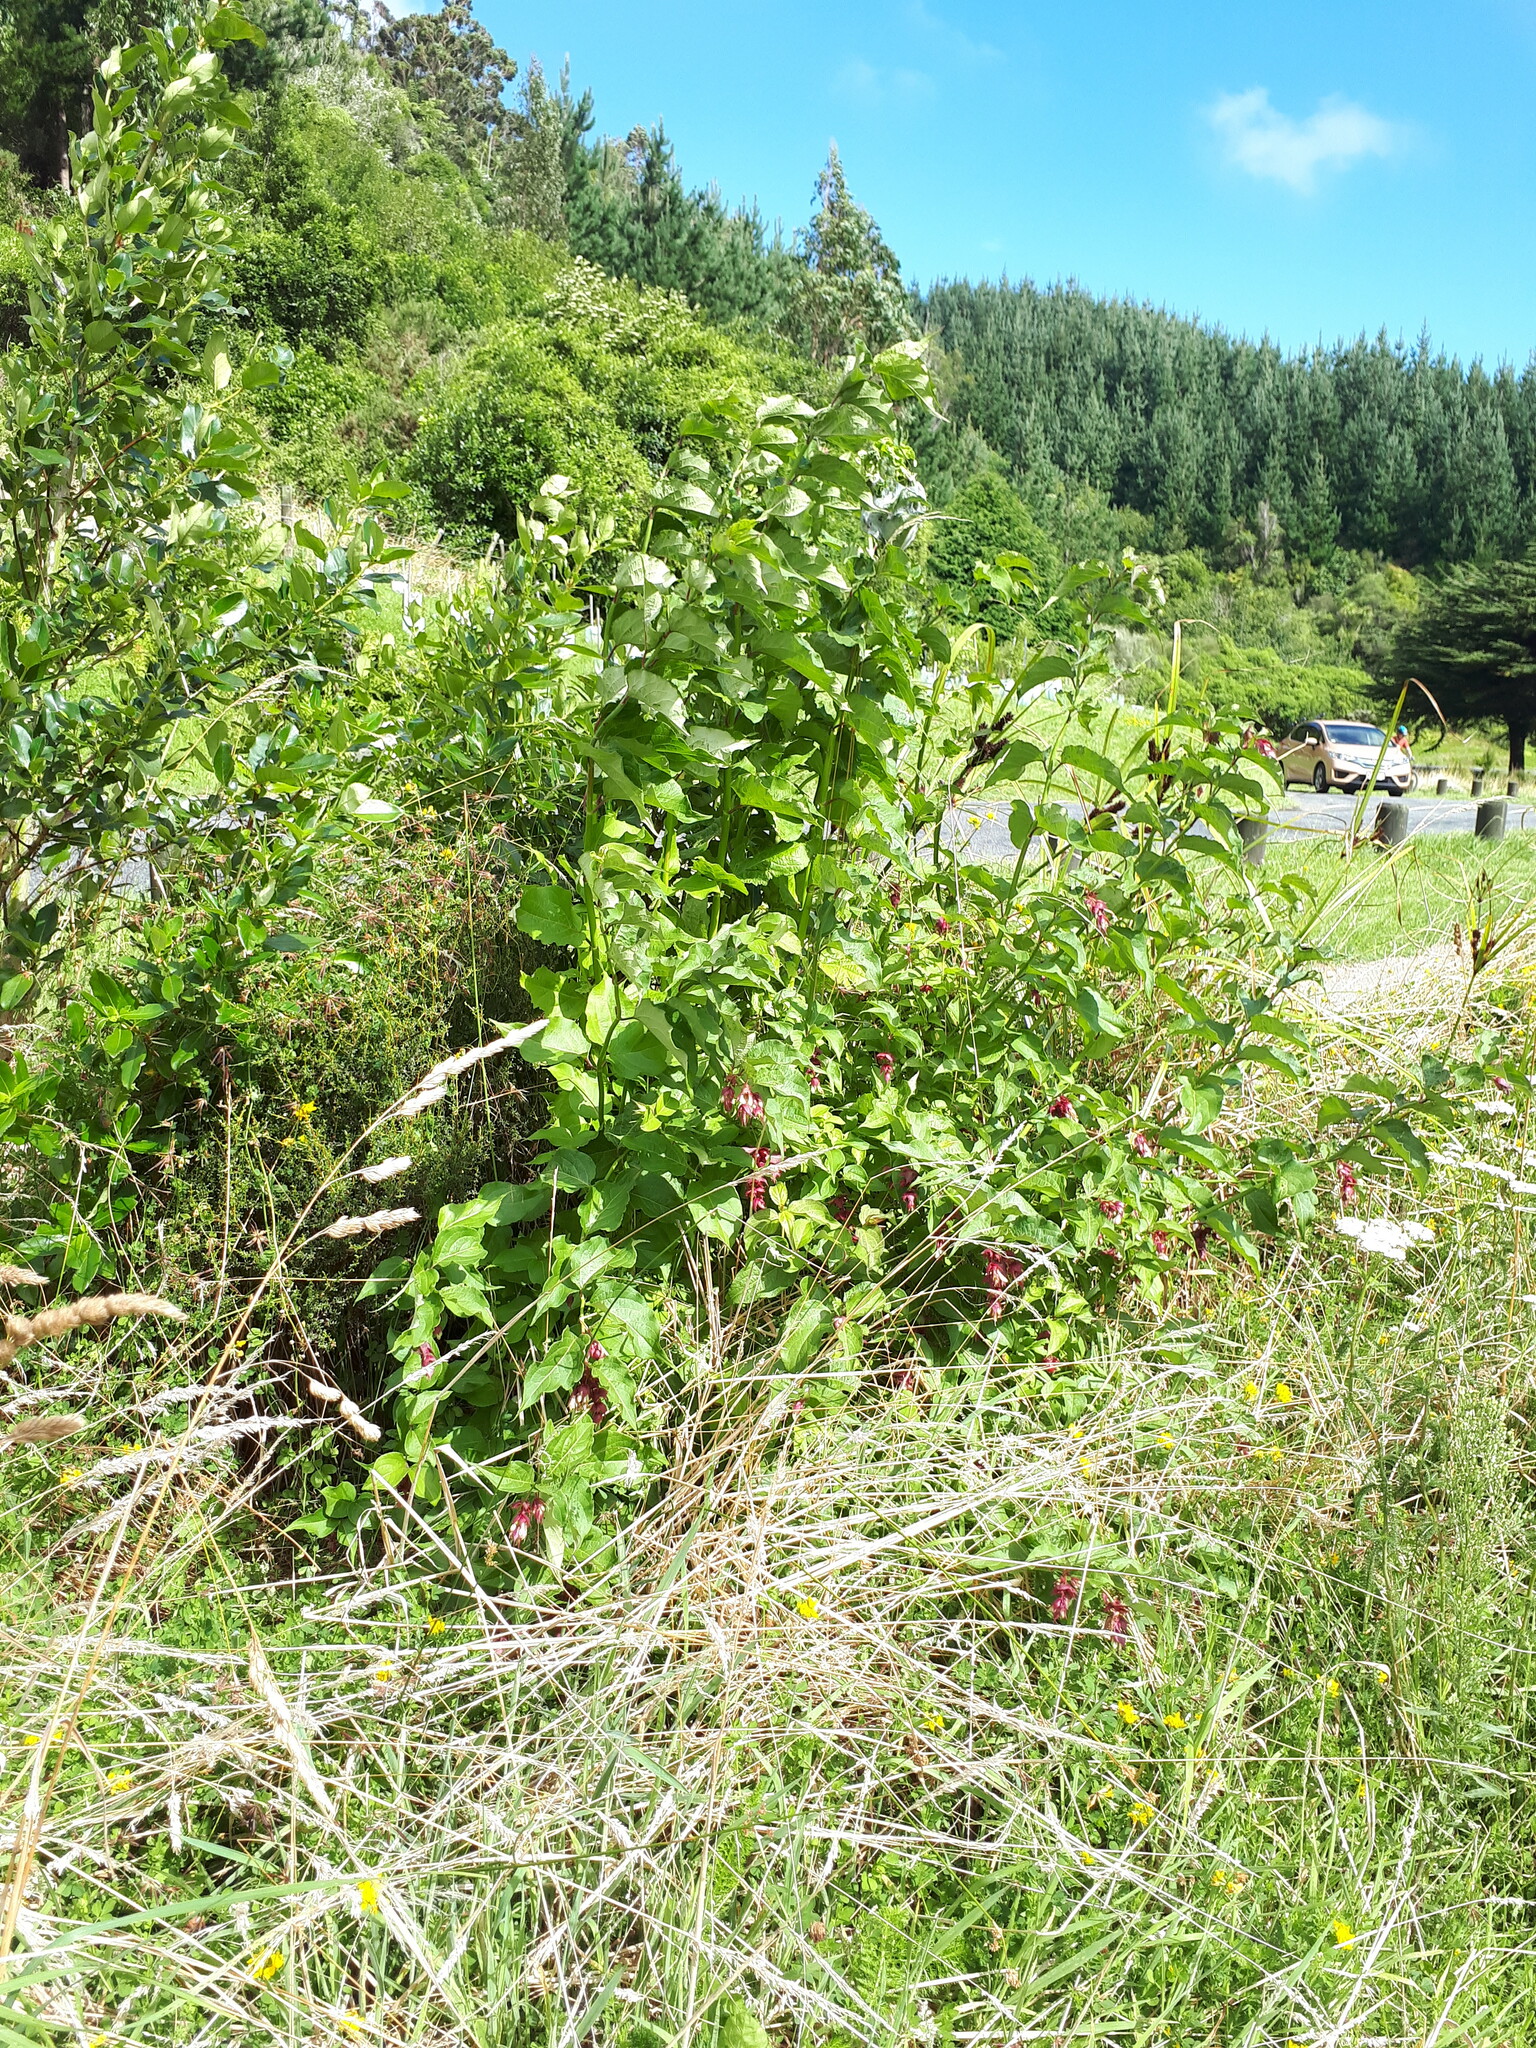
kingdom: Plantae
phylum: Tracheophyta
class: Magnoliopsida
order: Dipsacales
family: Caprifoliaceae
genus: Leycesteria
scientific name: Leycesteria formosa
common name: Himalayan honeysuckle
